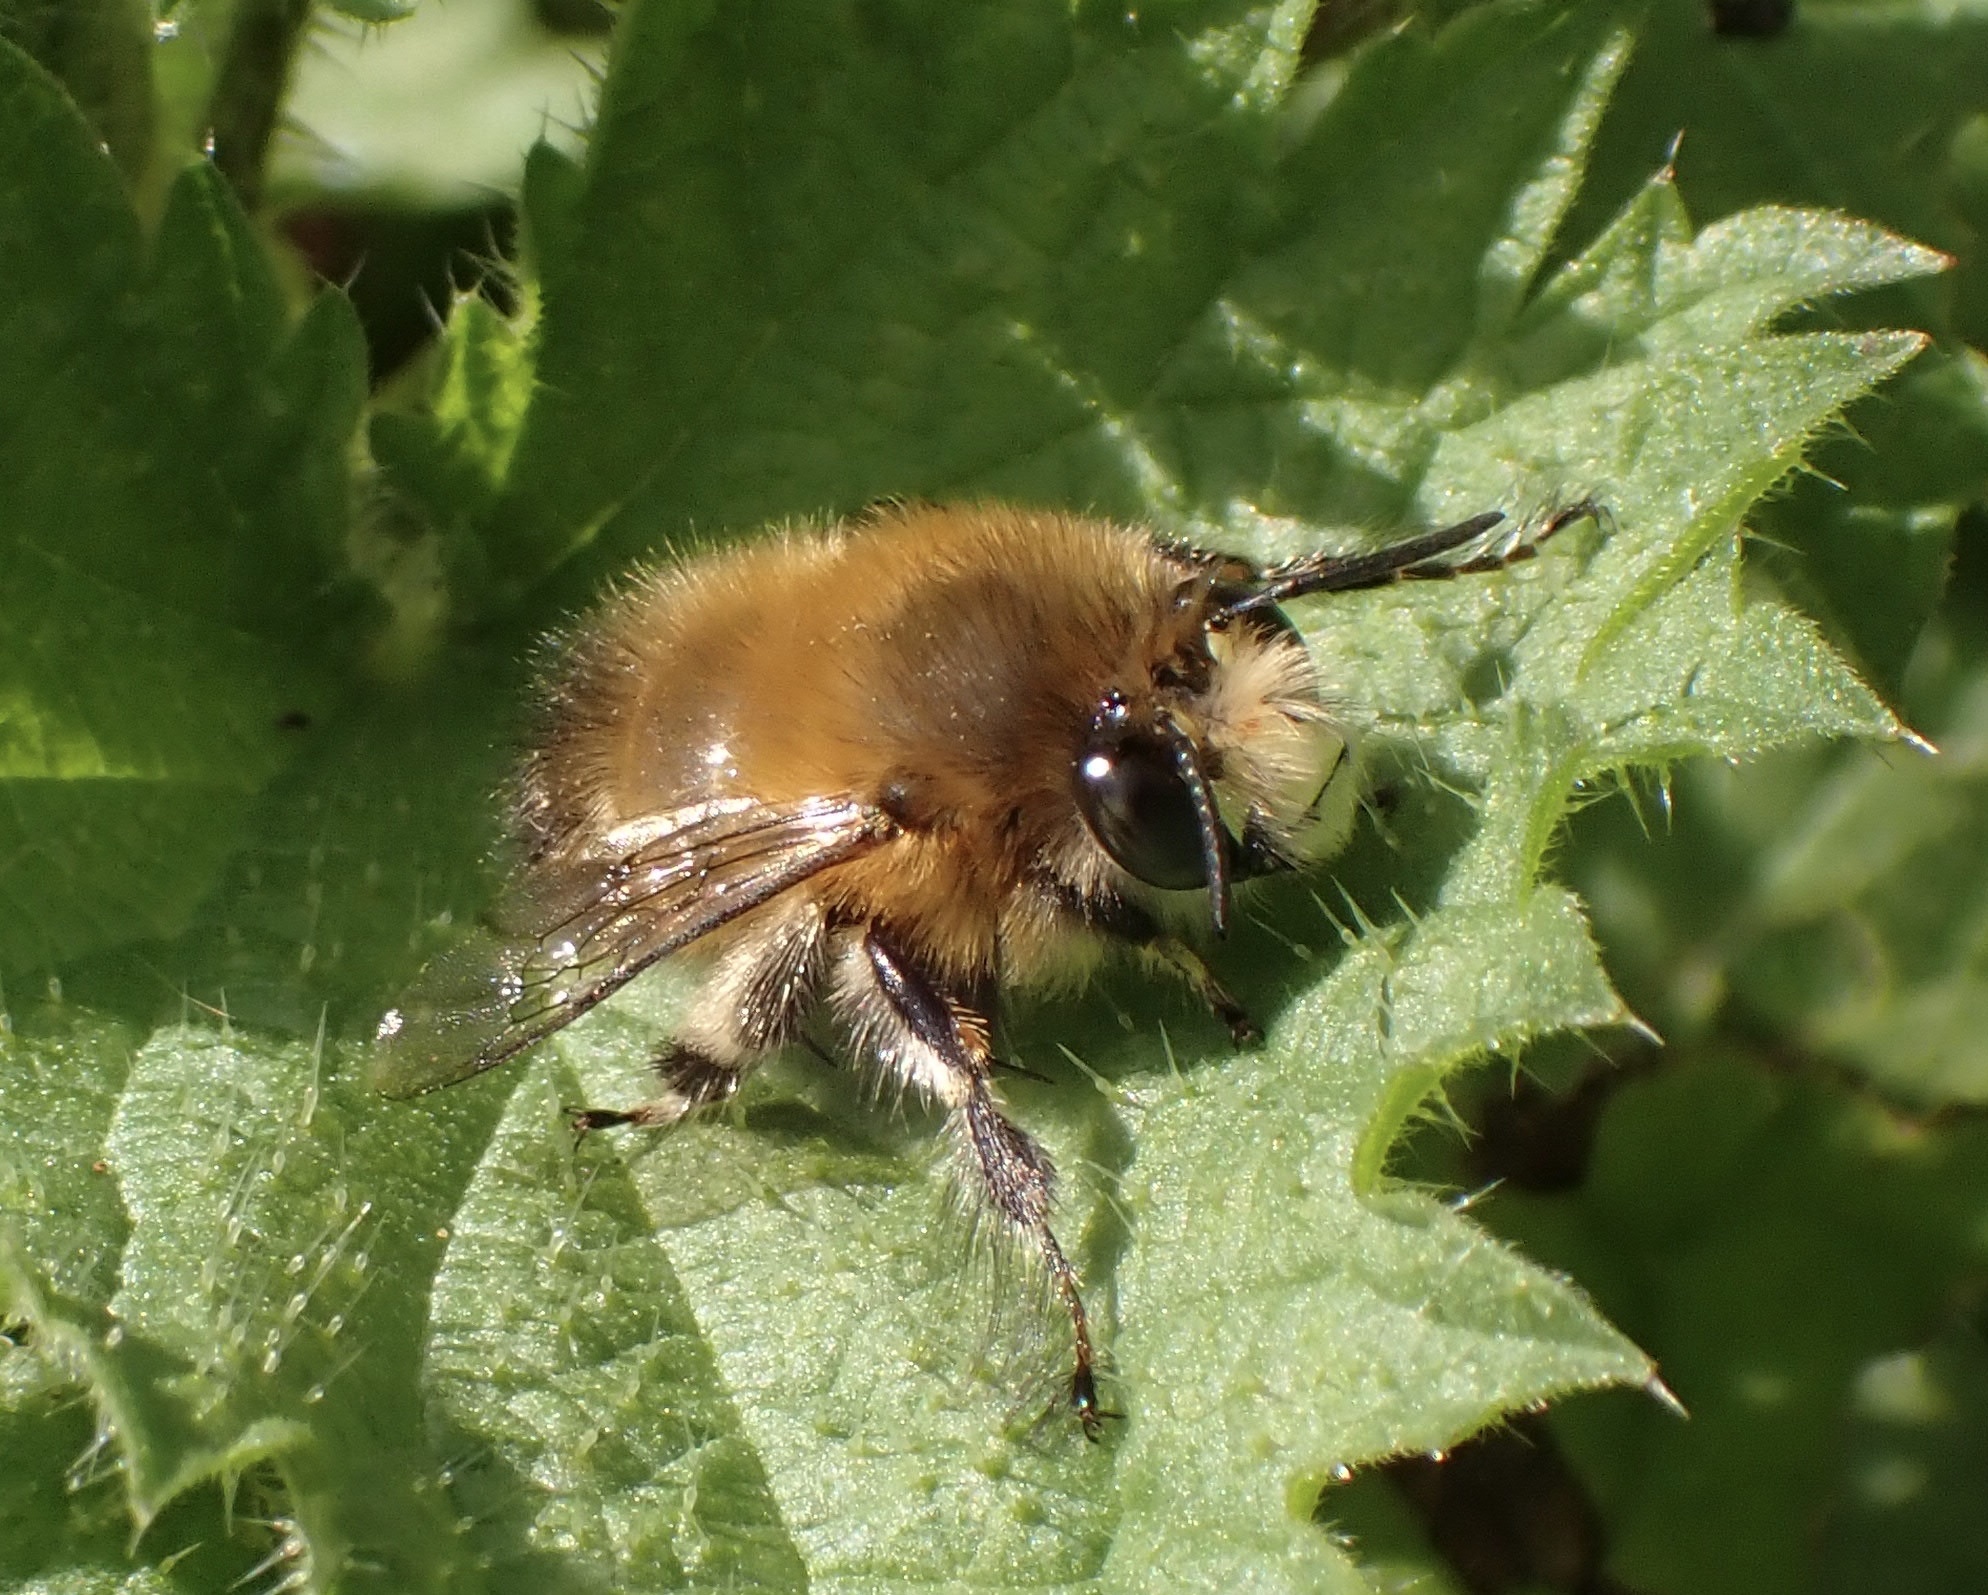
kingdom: Animalia
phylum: Arthropoda
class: Insecta
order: Hymenoptera
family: Apidae
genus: Anthophora
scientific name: Anthophora plumipes
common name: Hairy-footed flower bee
